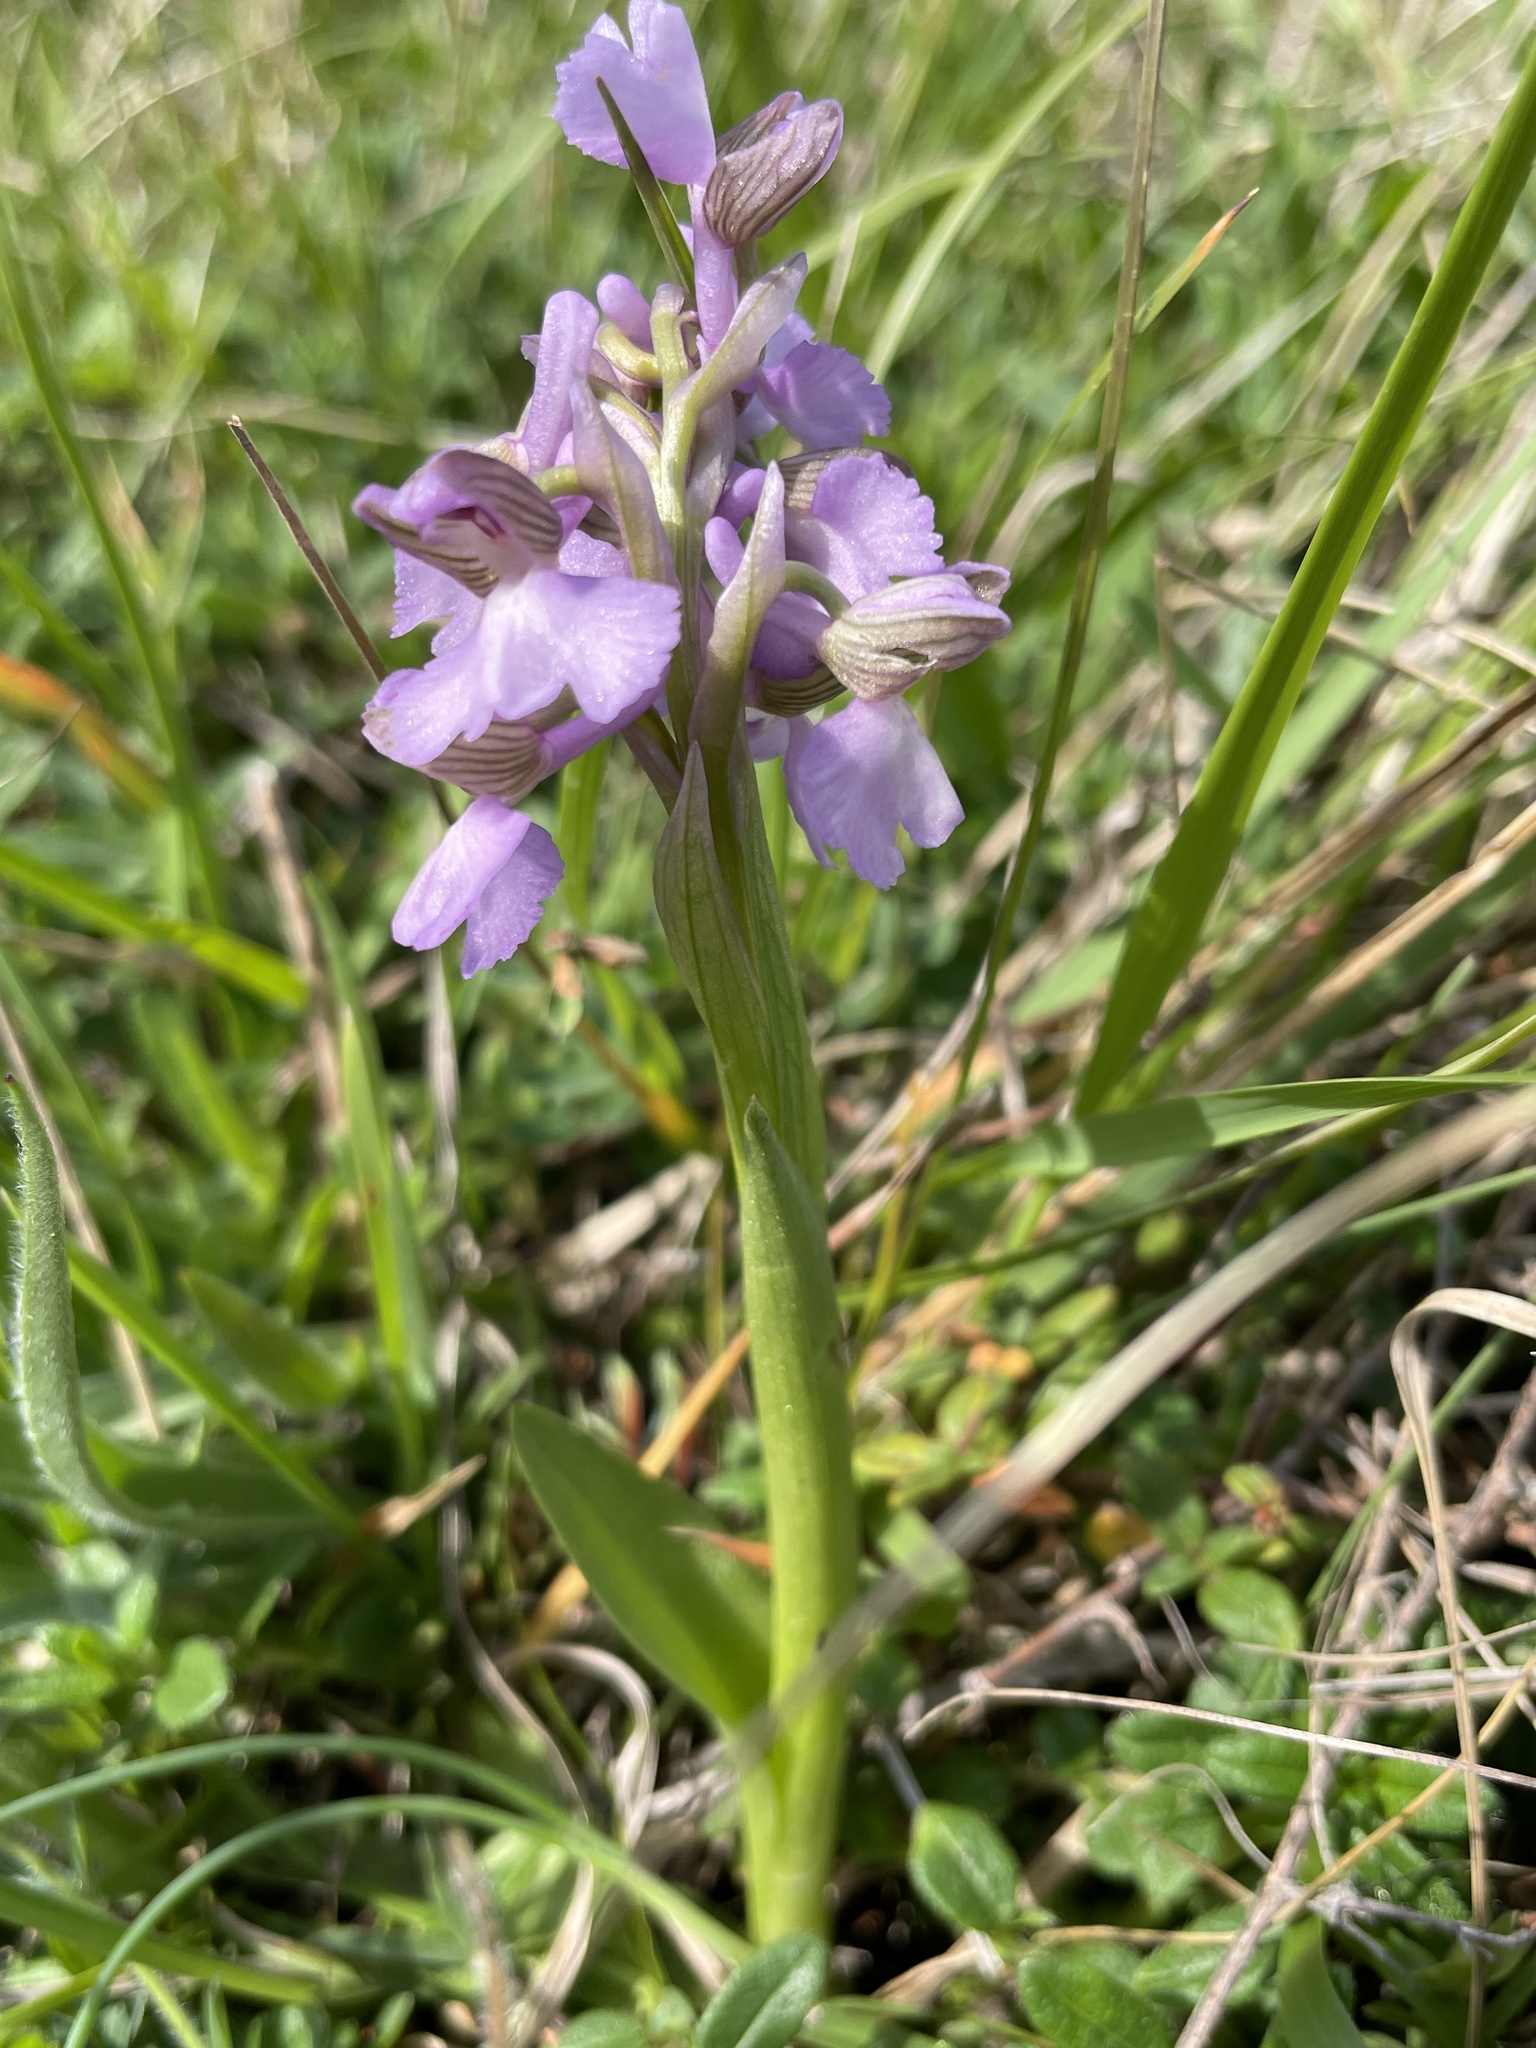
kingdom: Plantae
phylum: Tracheophyta
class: Liliopsida
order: Asparagales
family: Orchidaceae
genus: Anacamptis
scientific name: Anacamptis morio
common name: Green-winged orchid
